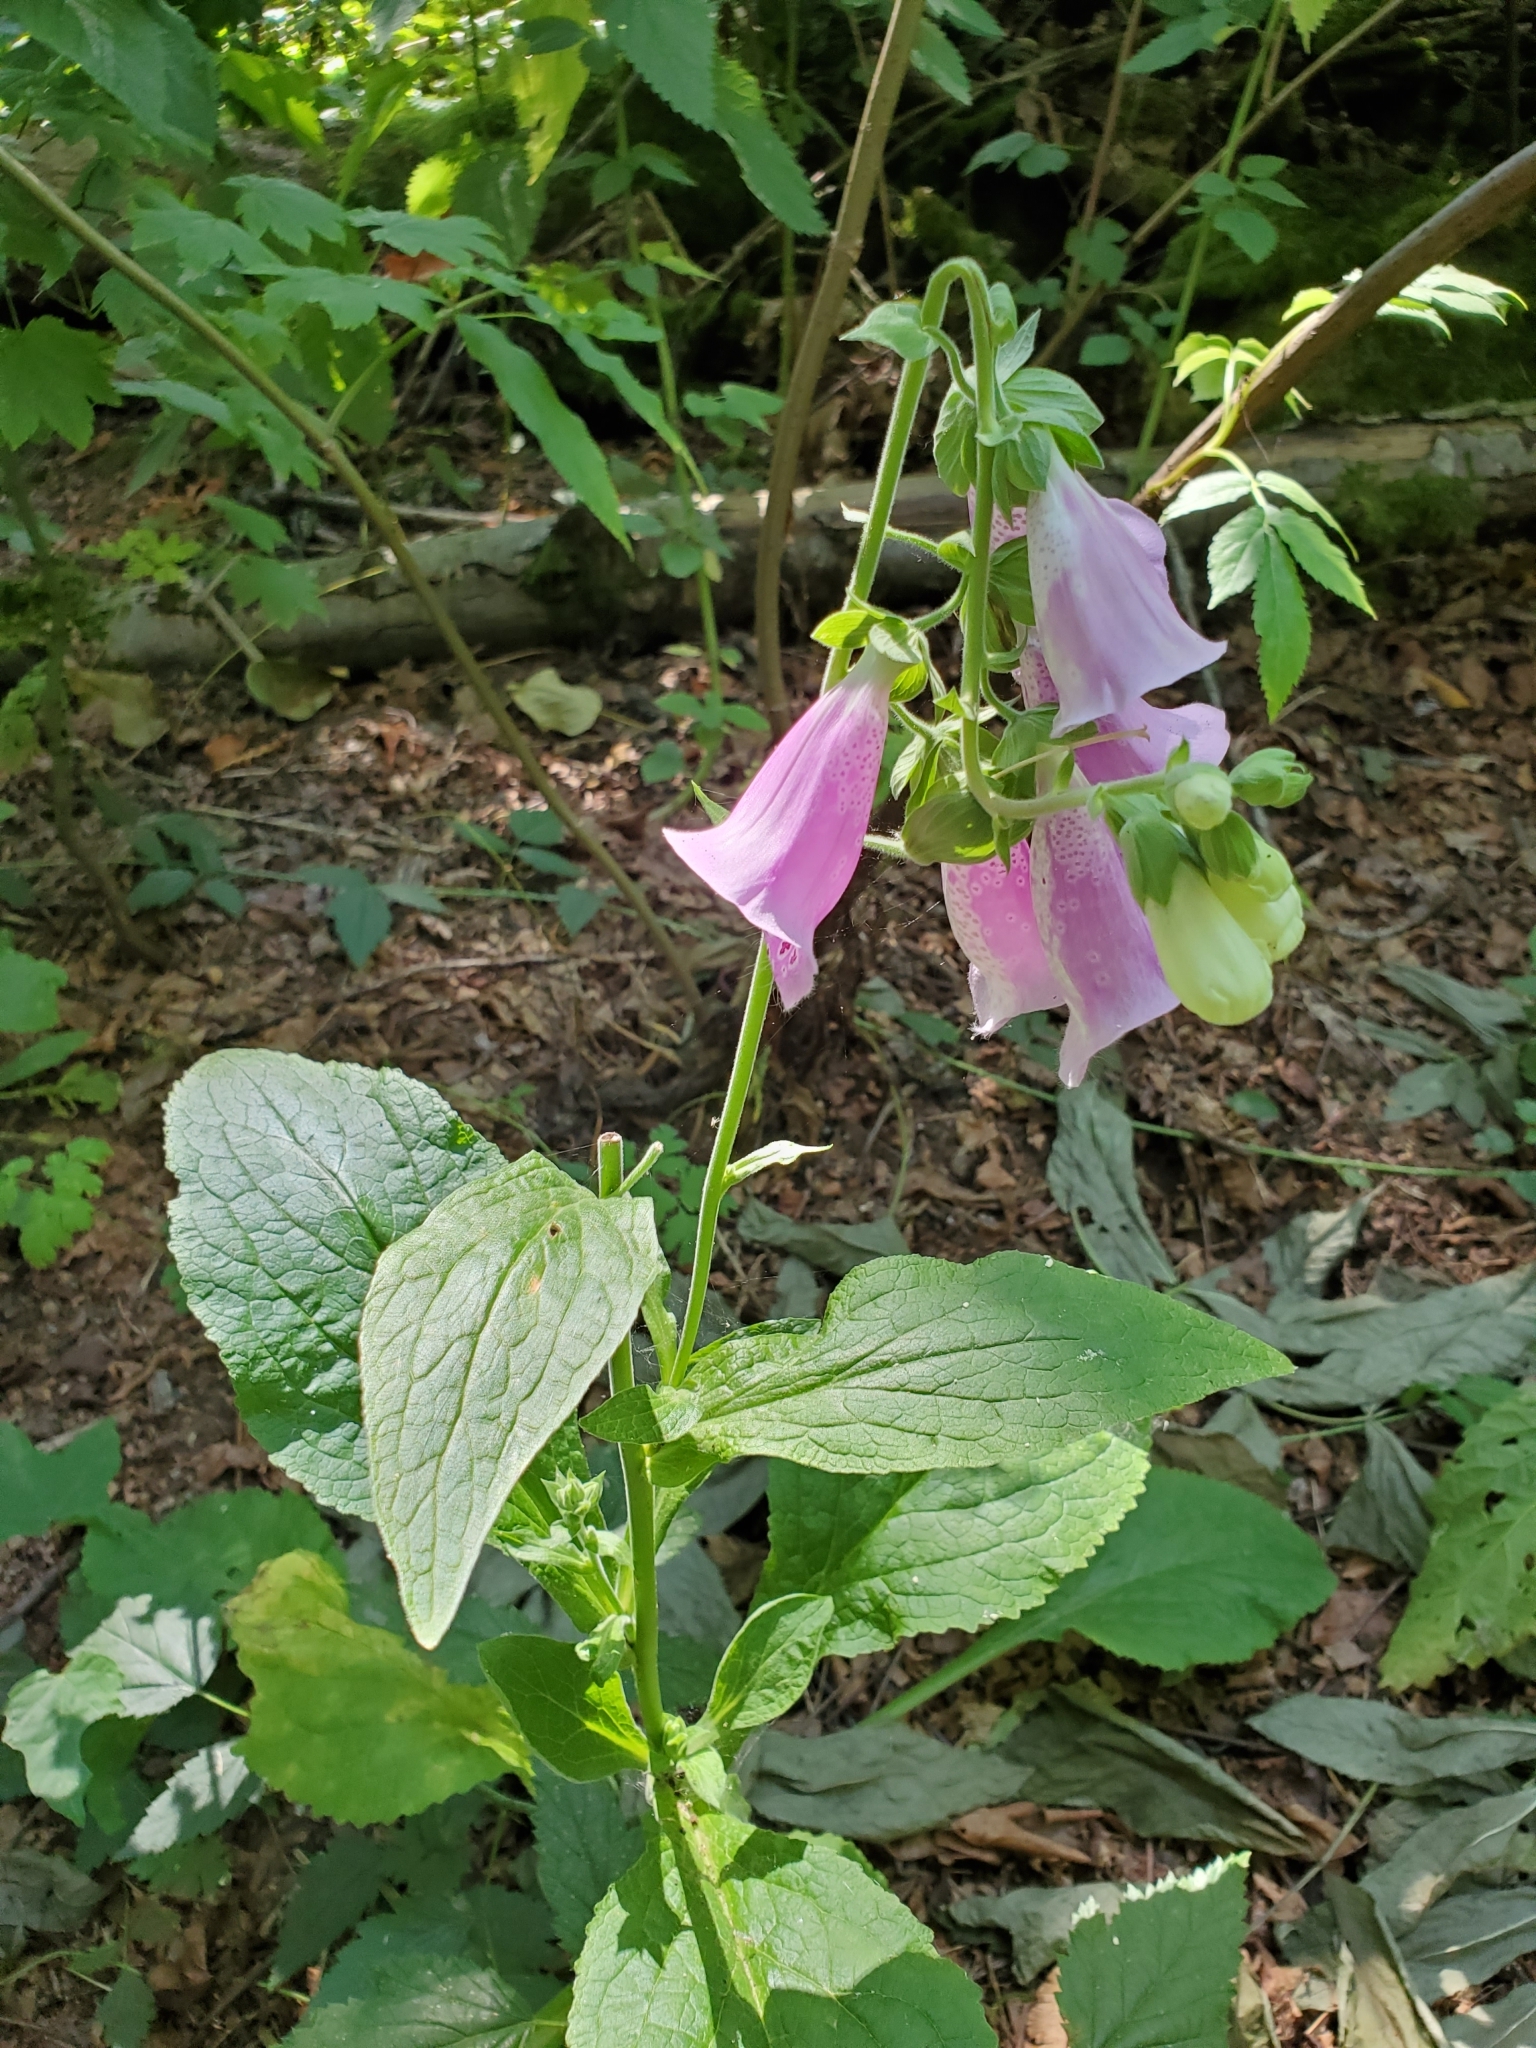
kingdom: Plantae
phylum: Tracheophyta
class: Magnoliopsida
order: Lamiales
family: Plantaginaceae
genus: Digitalis
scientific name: Digitalis purpurea
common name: Foxglove
